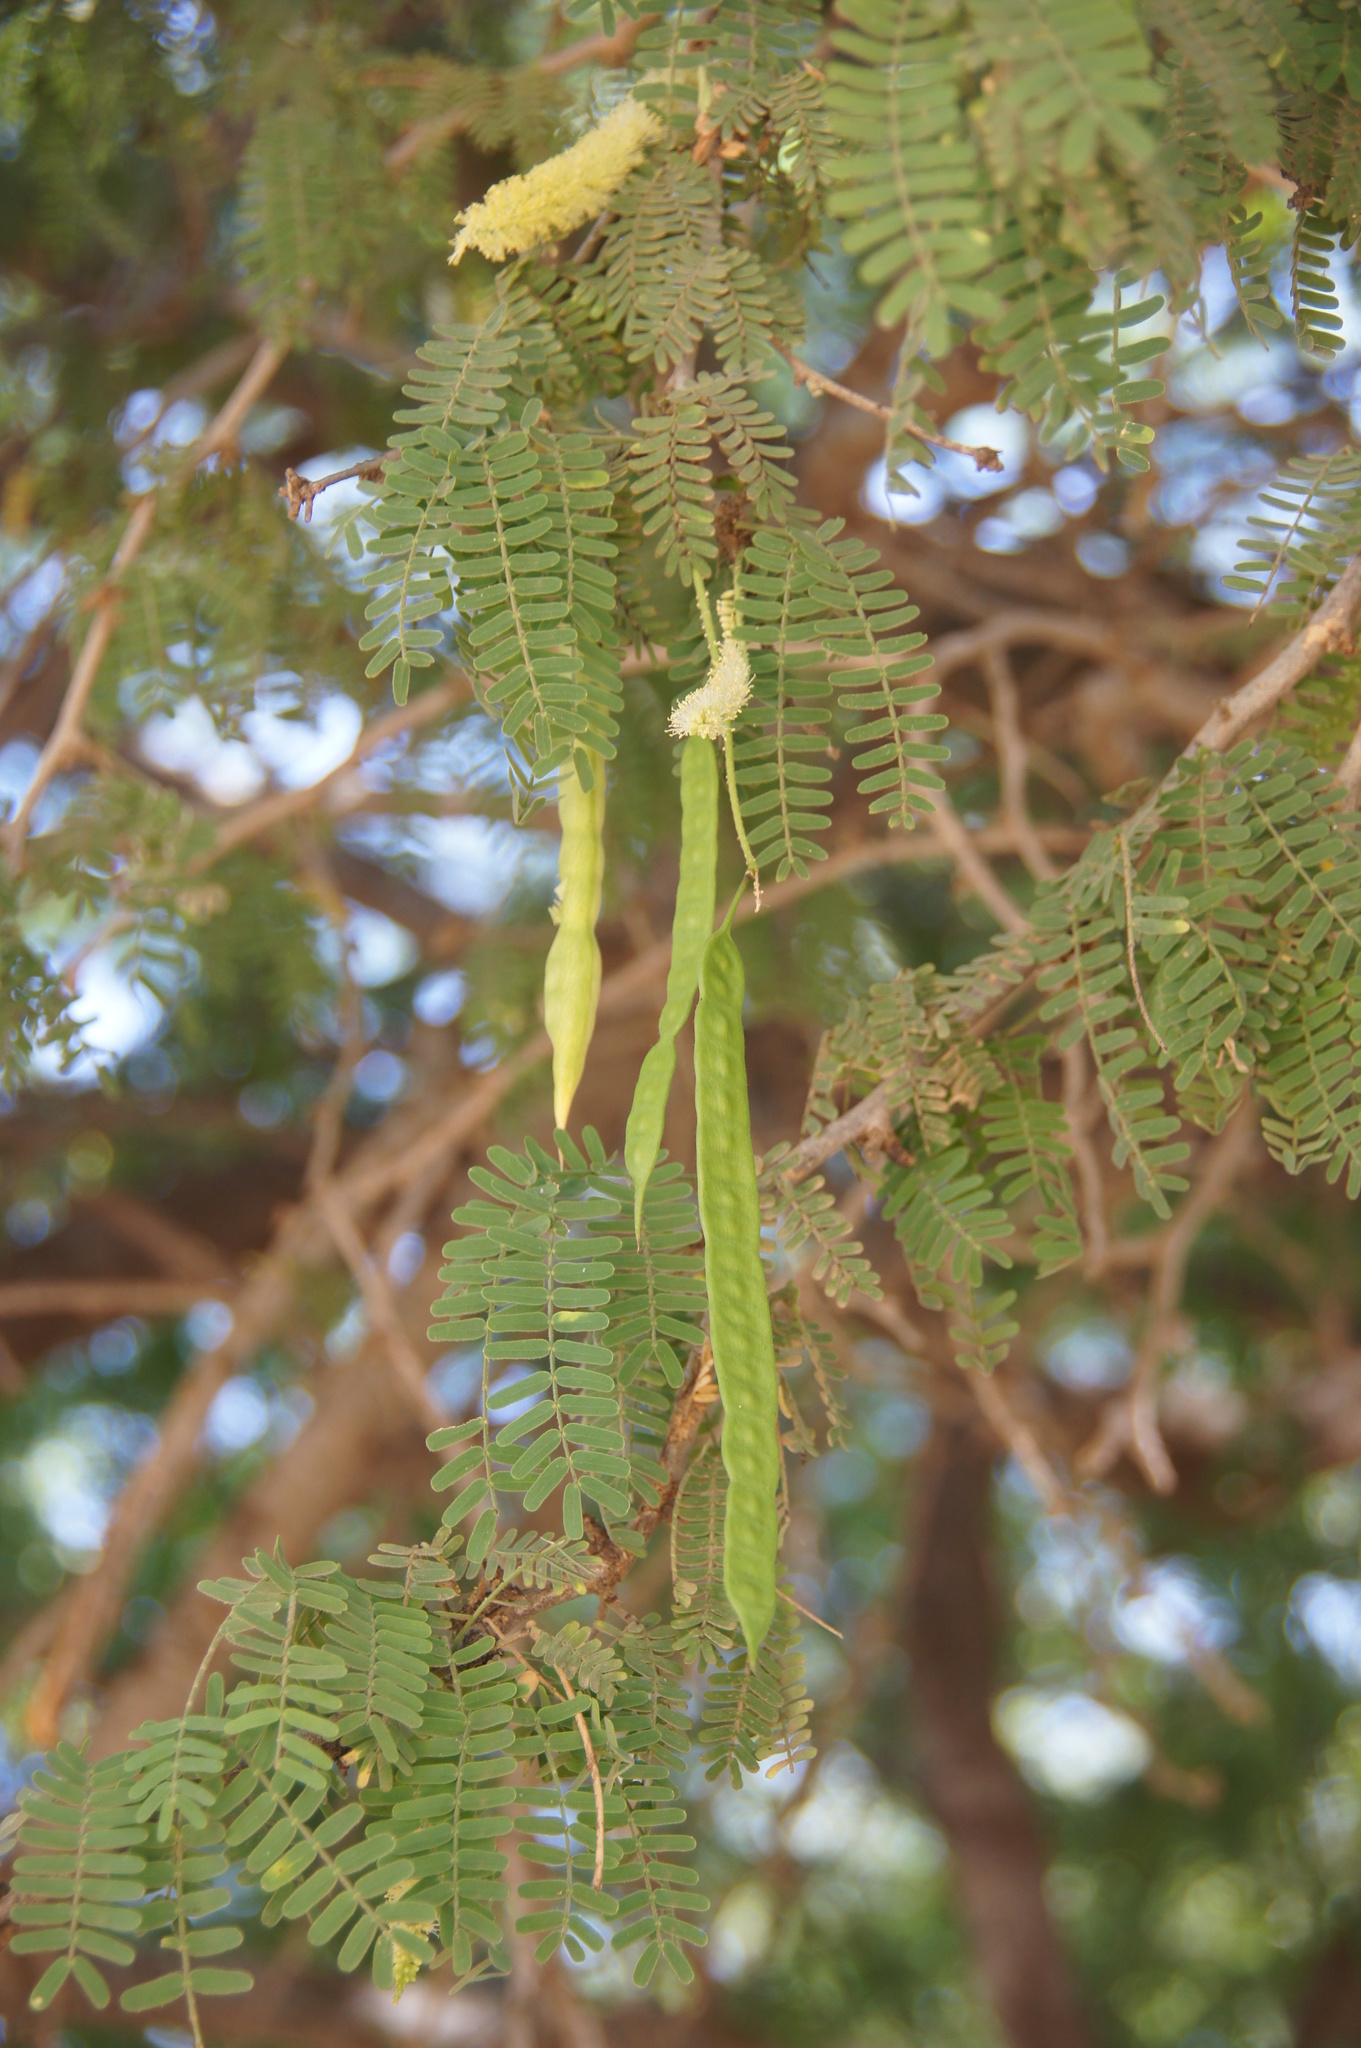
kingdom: Plantae
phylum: Tracheophyta
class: Magnoliopsida
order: Fabales
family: Fabaceae
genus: Prosopis
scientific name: Prosopis juliflora
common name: Mesquite
